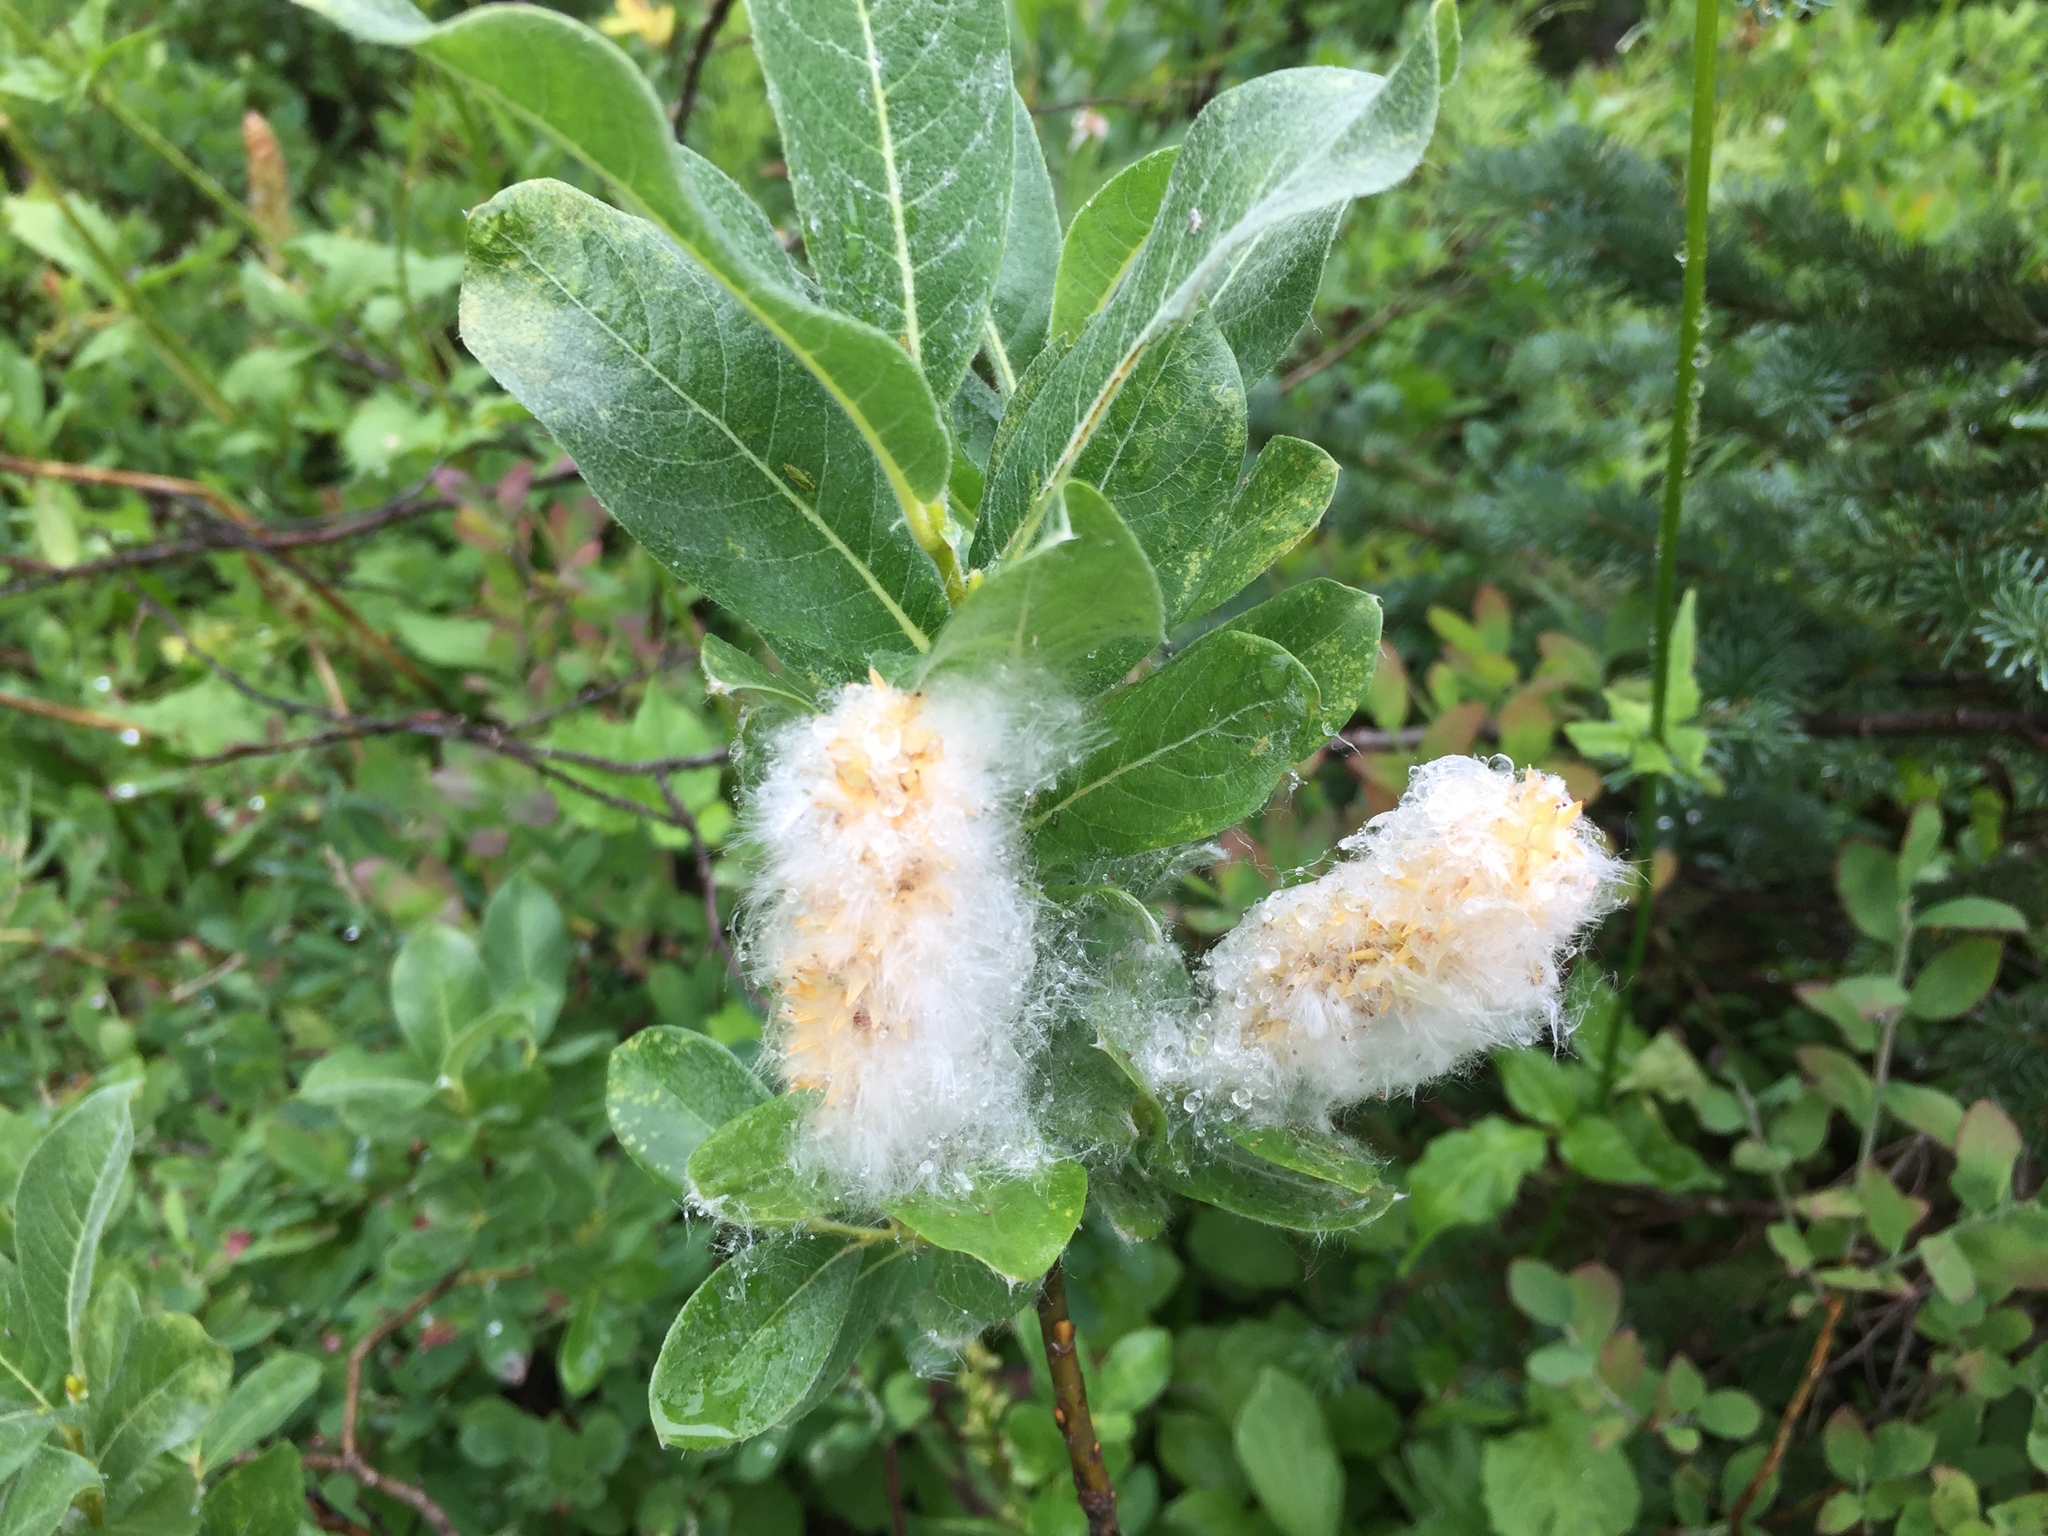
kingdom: Plantae
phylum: Tracheophyta
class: Magnoliopsida
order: Malpighiales
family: Salicaceae
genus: Salix
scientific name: Salix commutata
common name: Under-green willow
